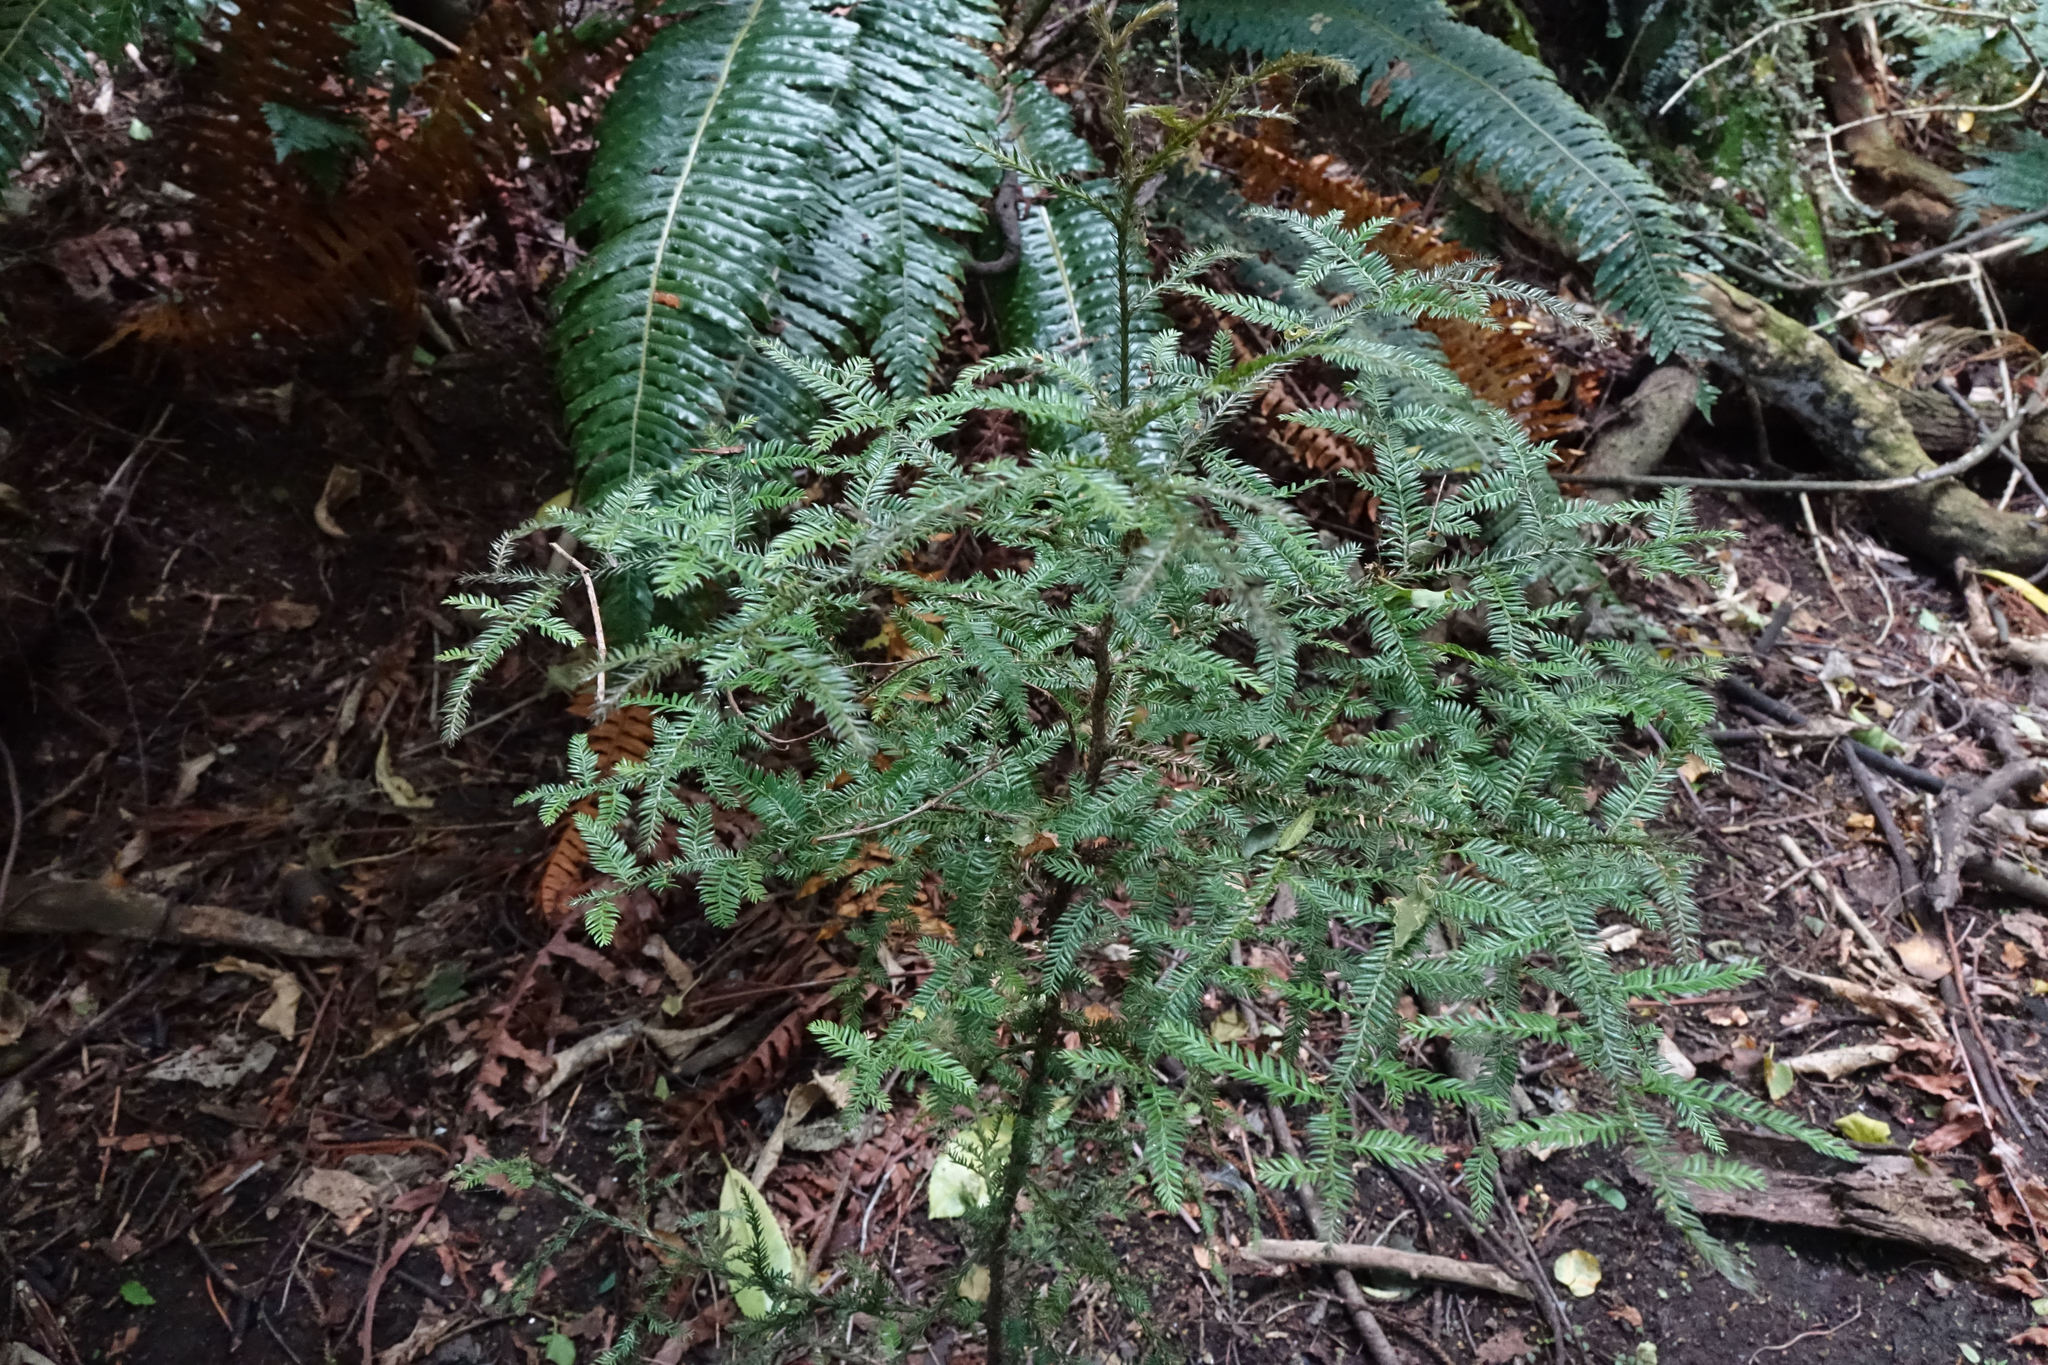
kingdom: Plantae
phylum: Tracheophyta
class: Pinopsida
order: Pinales
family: Podocarpaceae
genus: Dacrycarpus
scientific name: Dacrycarpus dacrydioides
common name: White pine
